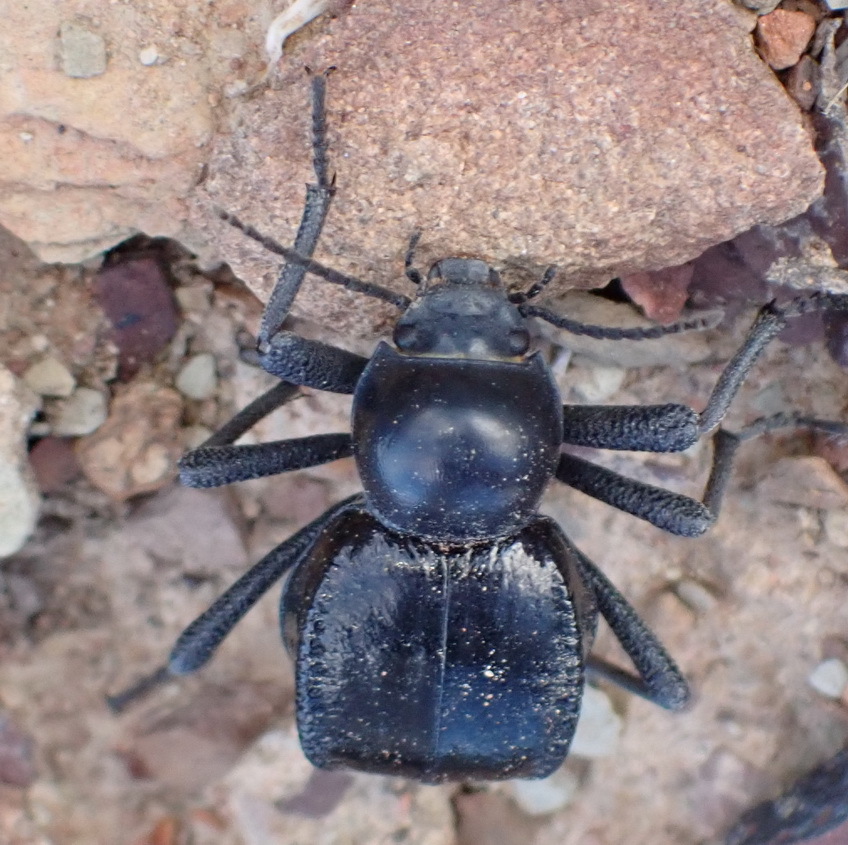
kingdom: Animalia
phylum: Arthropoda
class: Insecta
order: Coleoptera
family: Tenebrionidae
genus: Moluris
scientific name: Moluris gibba
